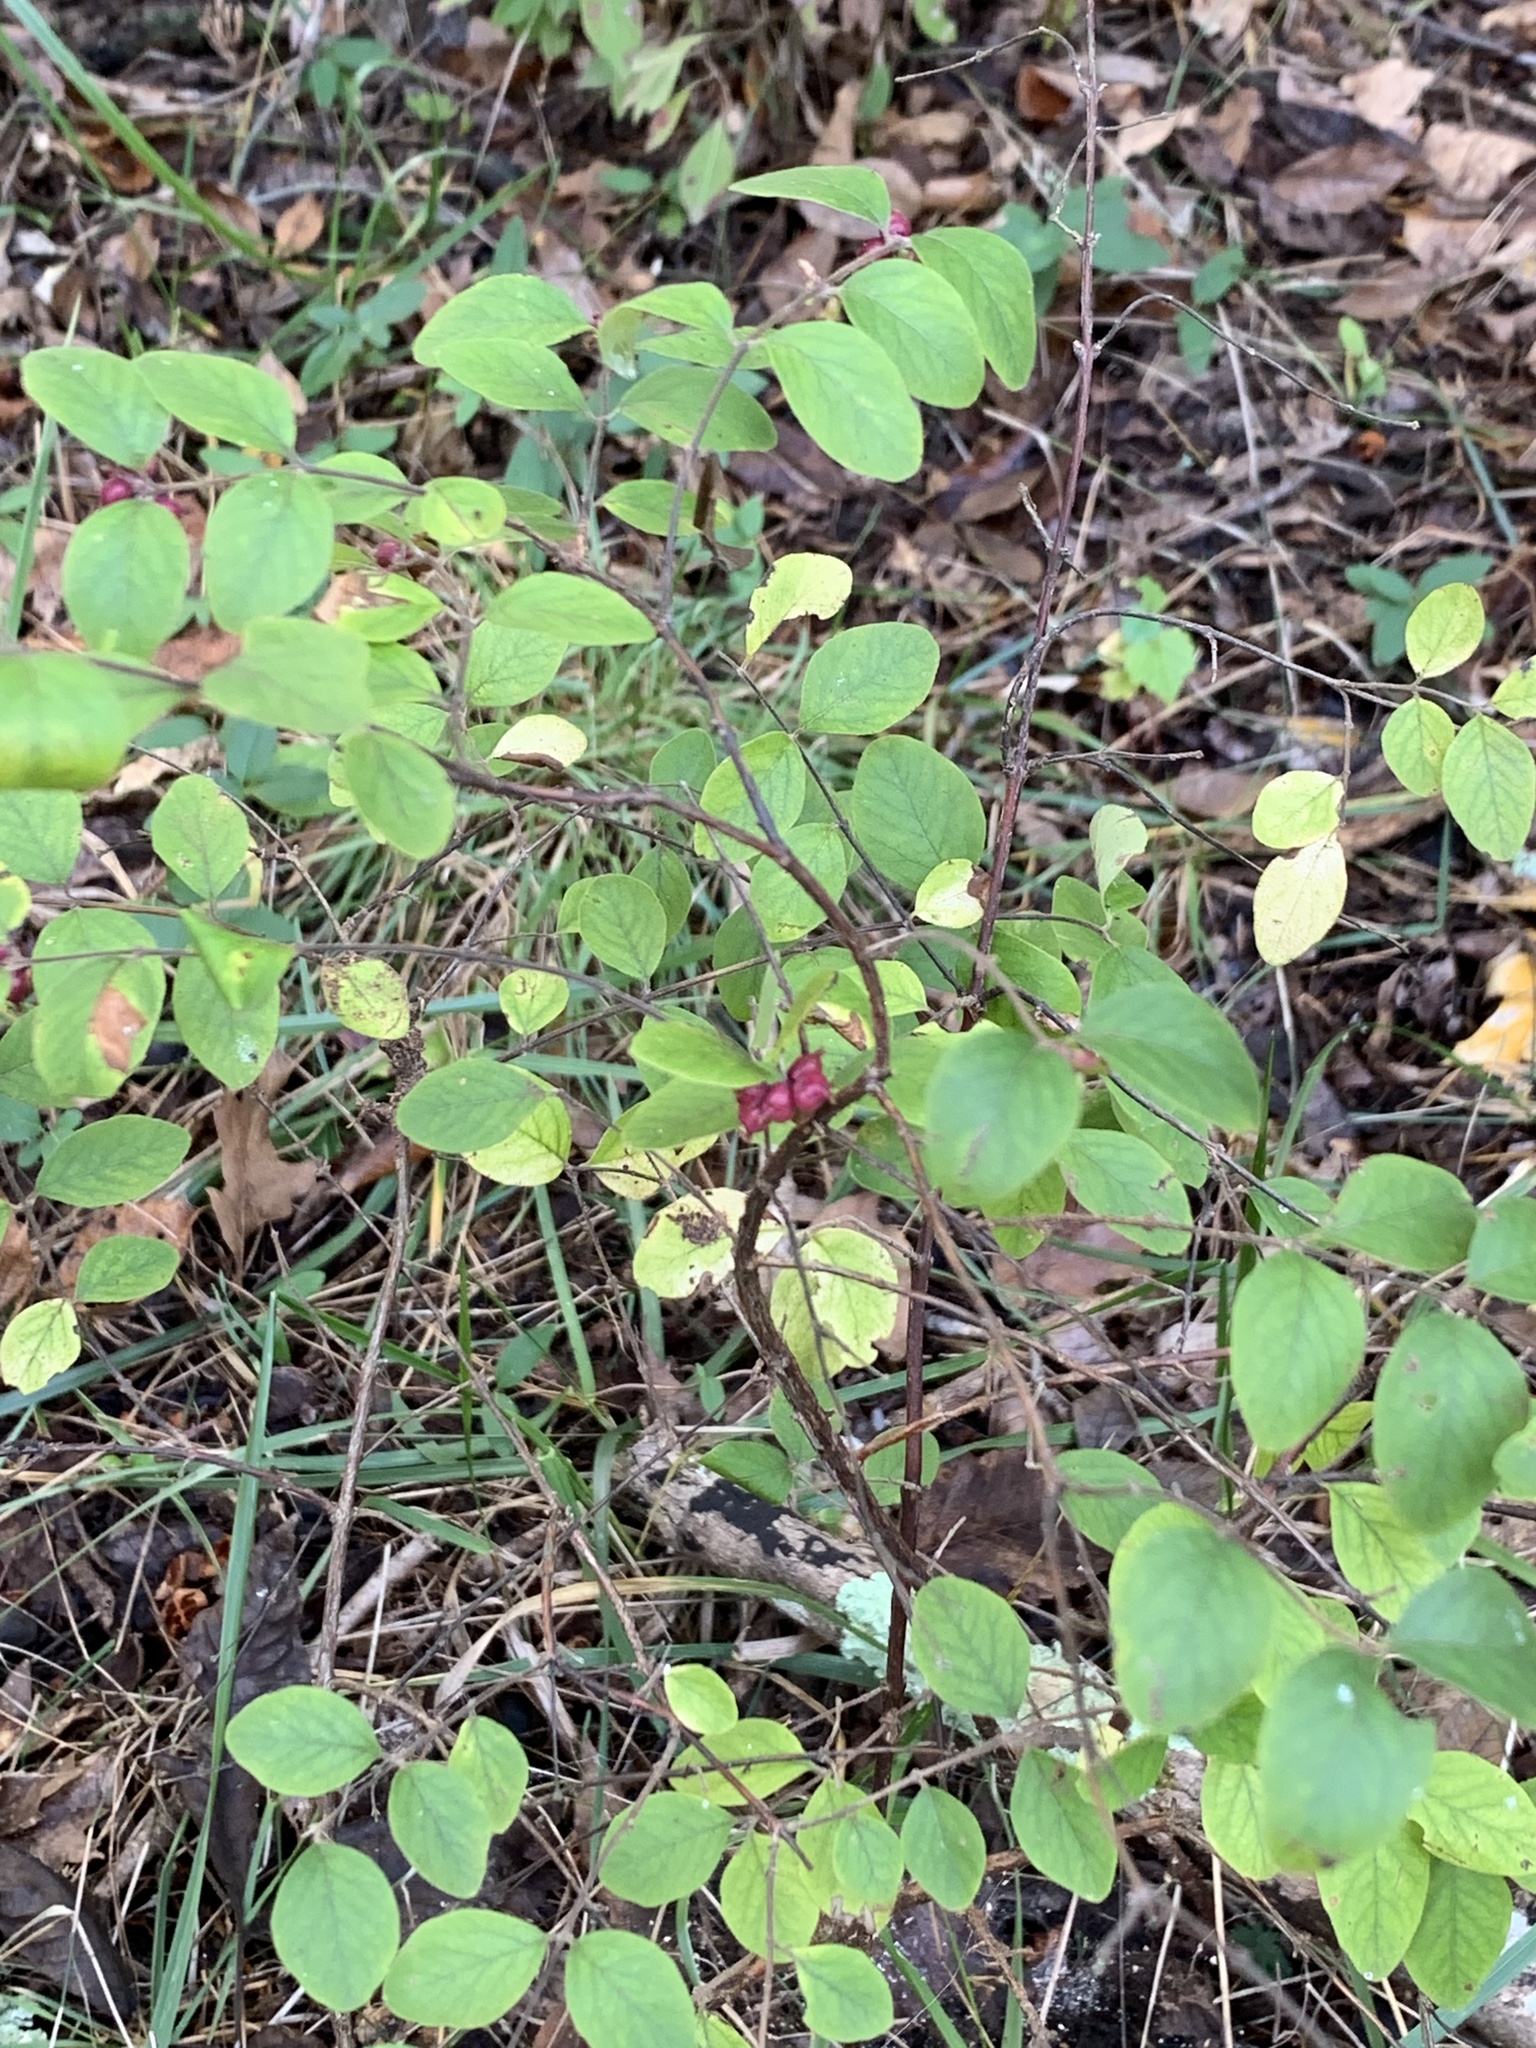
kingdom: Plantae
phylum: Tracheophyta
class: Magnoliopsida
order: Dipsacales
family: Caprifoliaceae
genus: Symphoricarpos
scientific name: Symphoricarpos orbiculatus
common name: Coralberry
